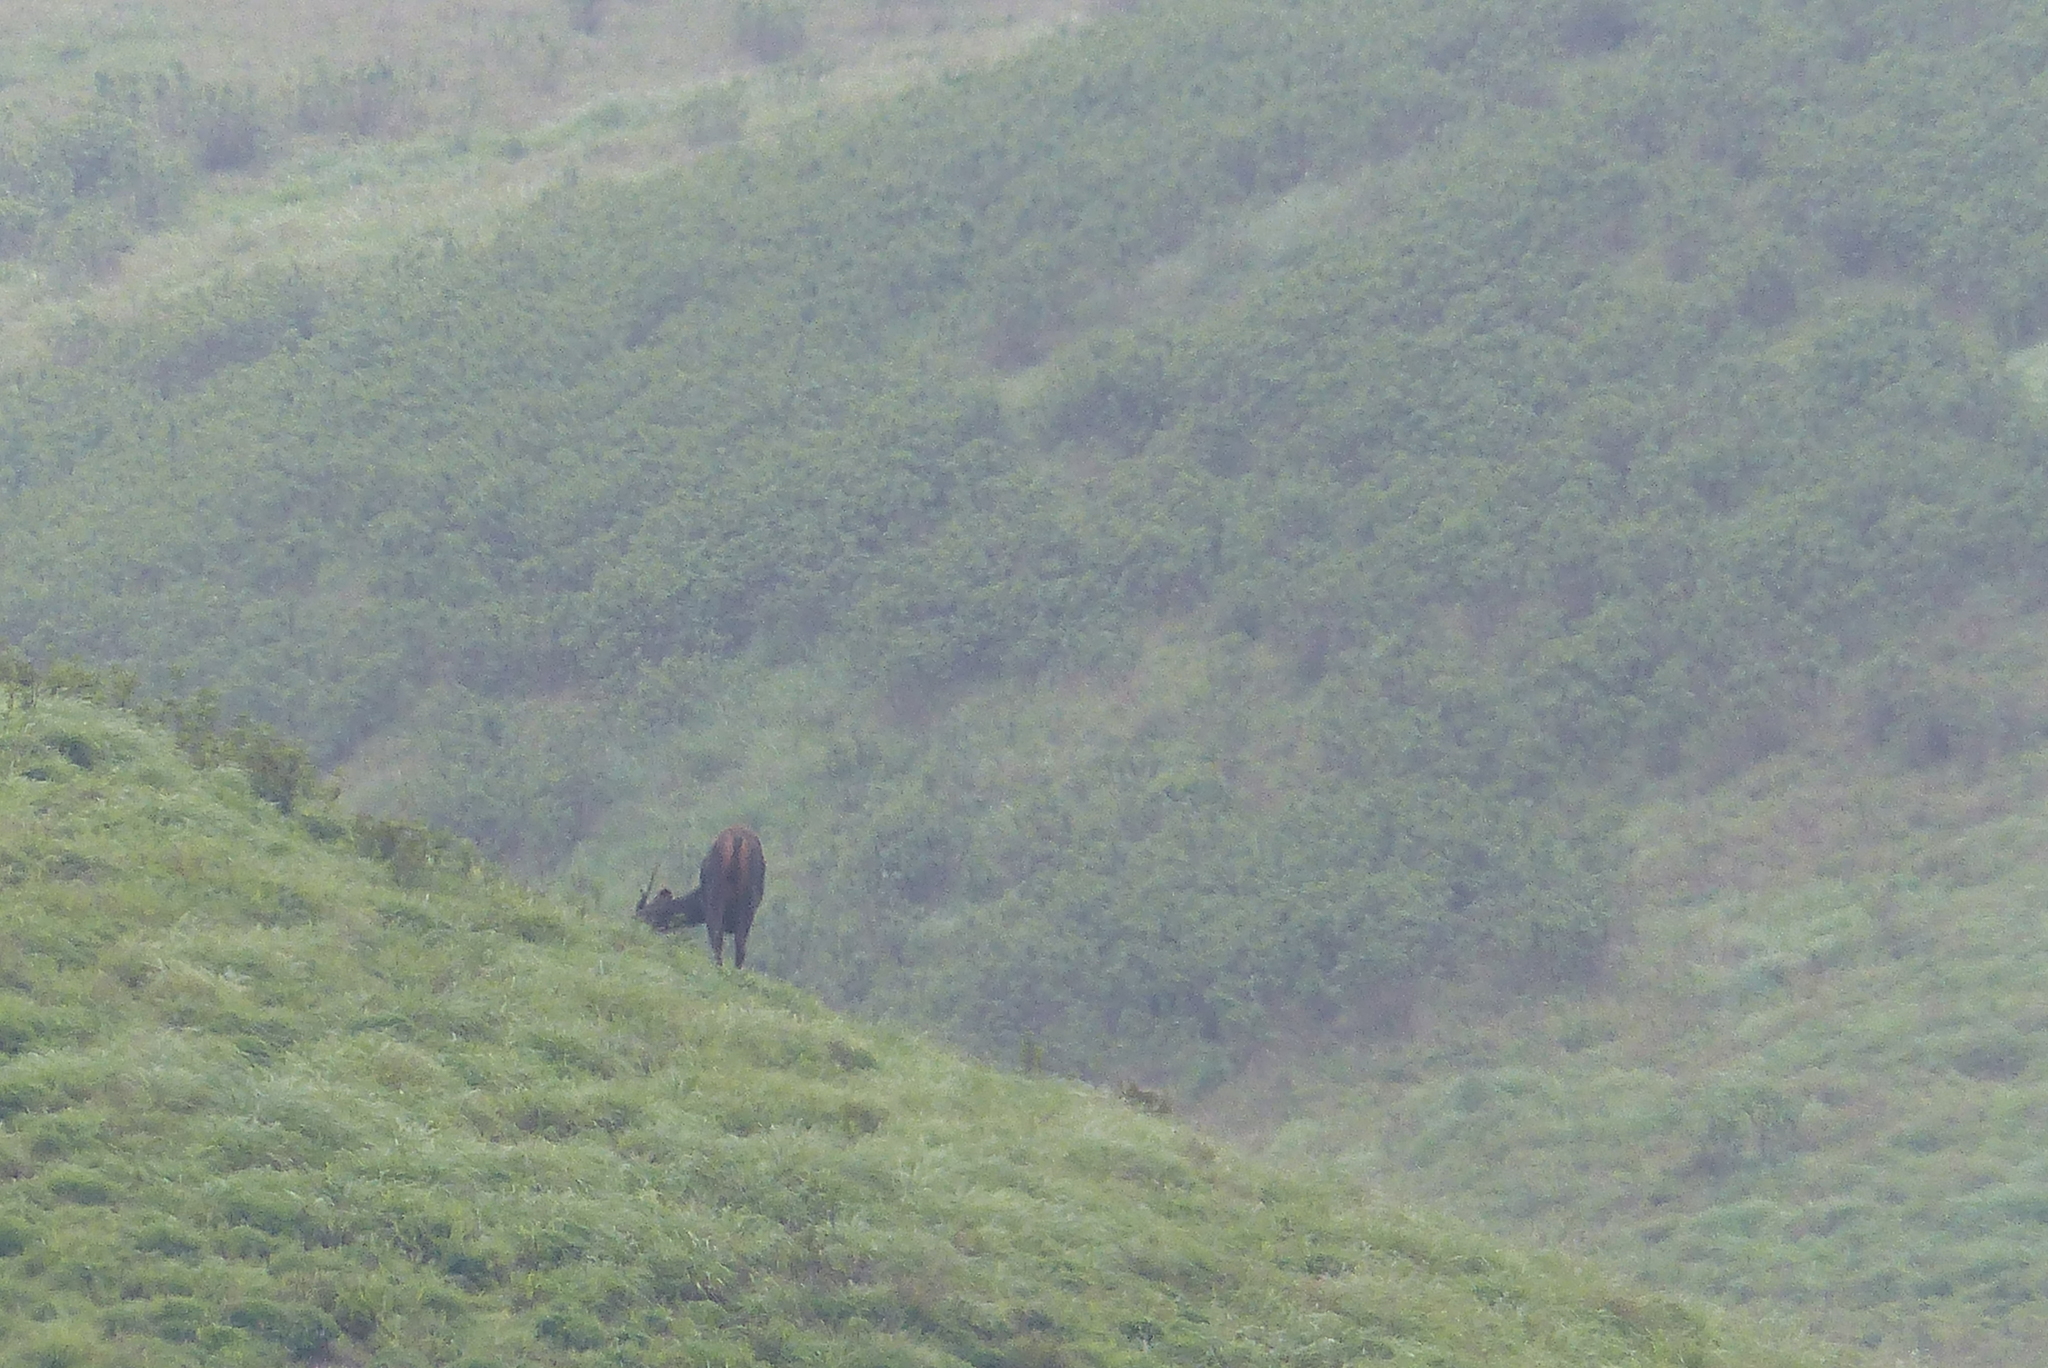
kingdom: Animalia
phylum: Chordata
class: Mammalia
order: Artiodactyla
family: Cervidae
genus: Rusa
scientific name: Rusa unicolor
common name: Sambar
